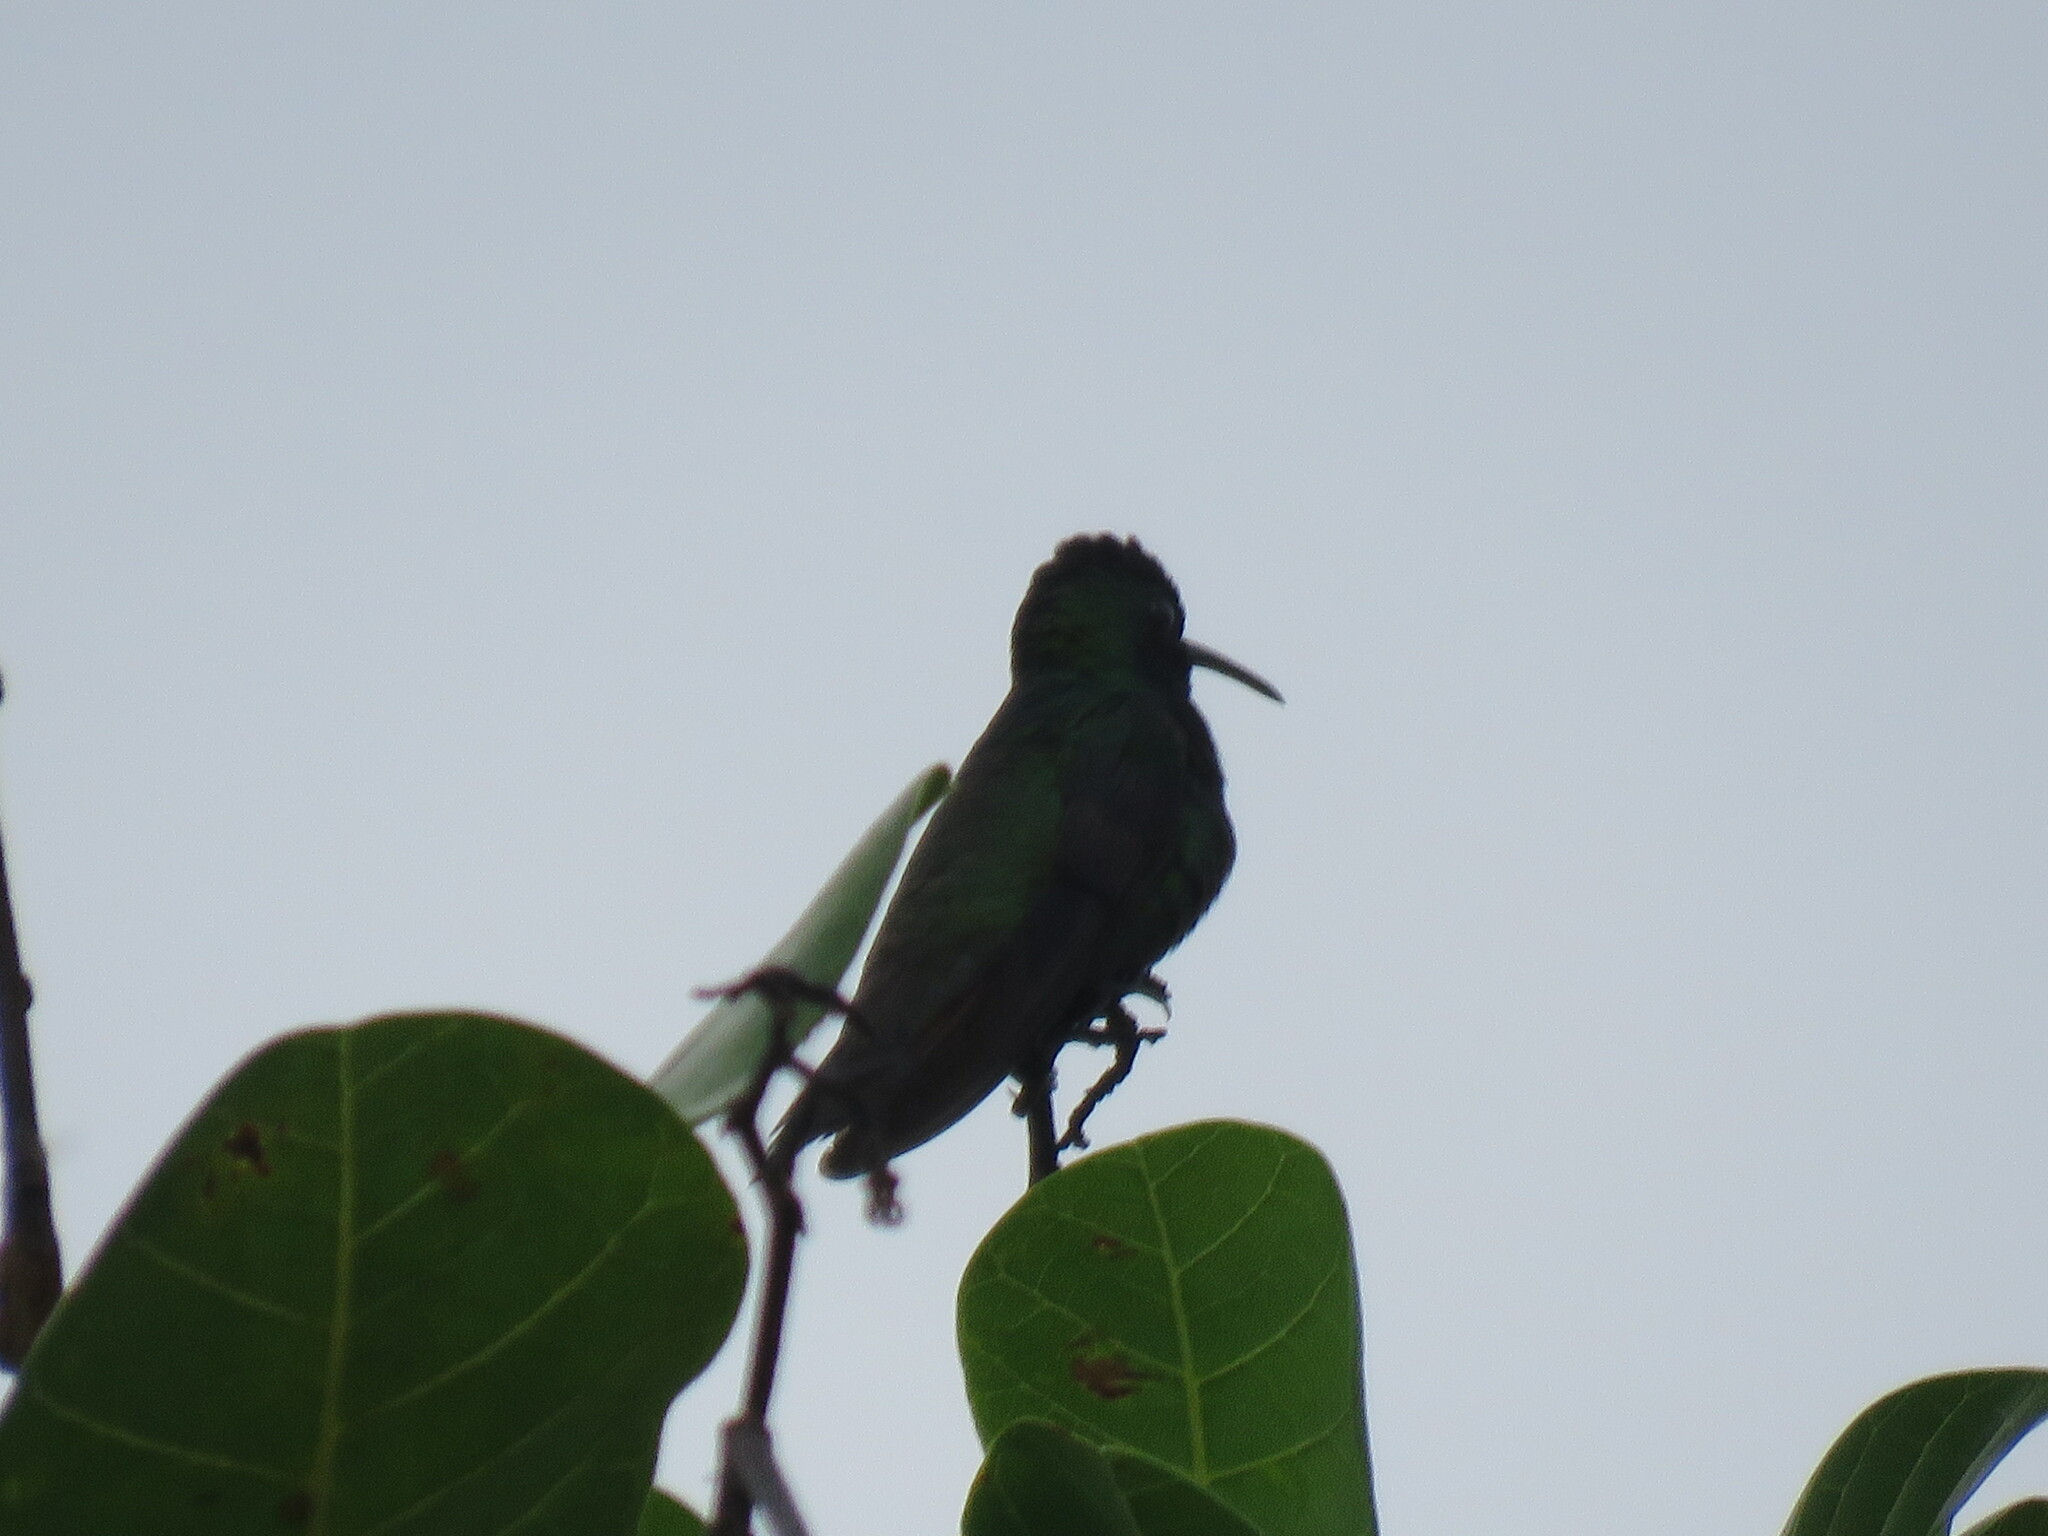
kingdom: Animalia
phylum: Chordata
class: Aves
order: Apodiformes
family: Trochilidae
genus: Anthracothorax
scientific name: Anthracothorax nigricollis
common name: Black-throated mango
